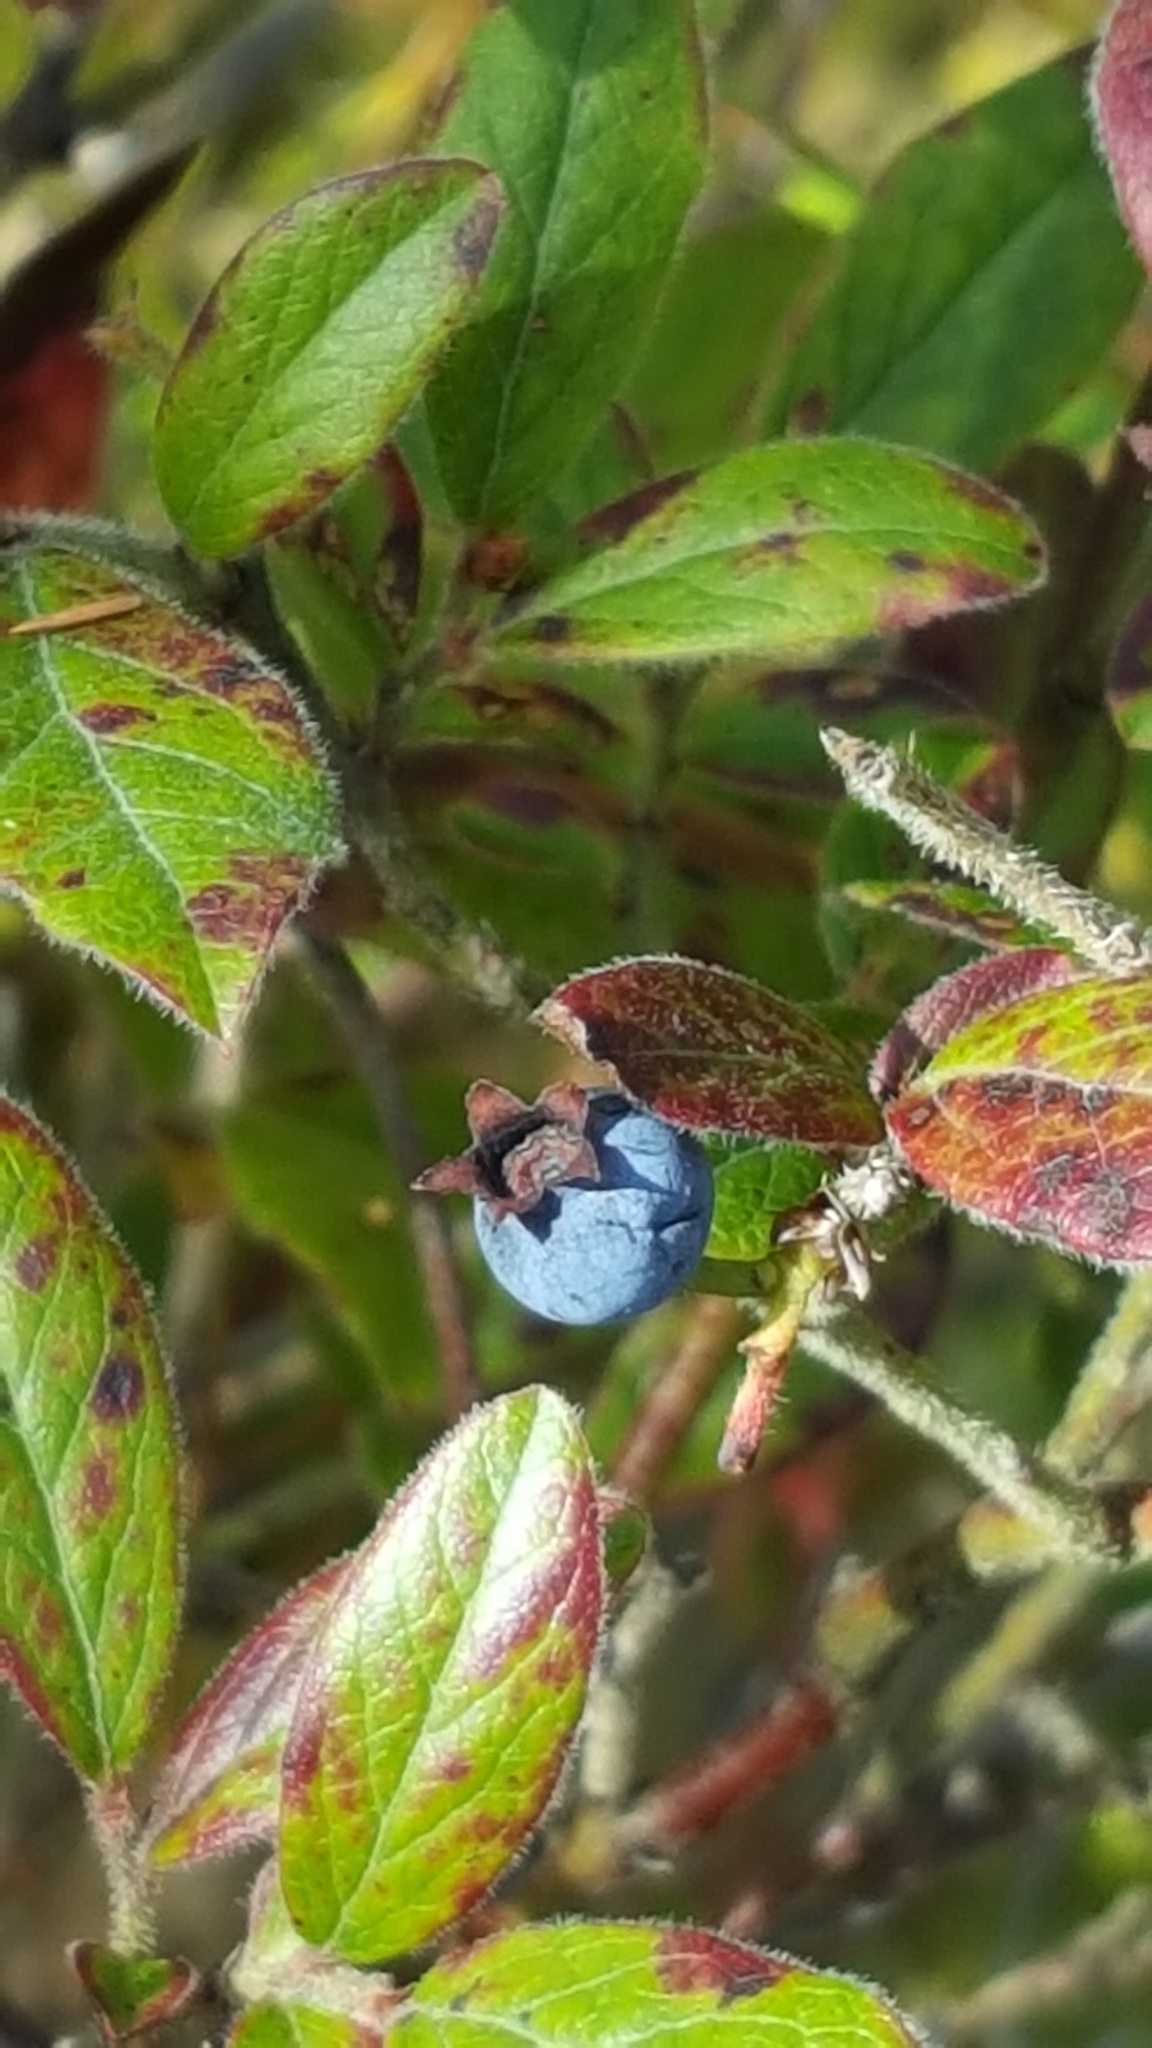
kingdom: Plantae
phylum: Tracheophyta
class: Magnoliopsida
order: Ericales
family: Ericaceae
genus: Vaccinium
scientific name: Vaccinium myrtilloides
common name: Canada blueberry
